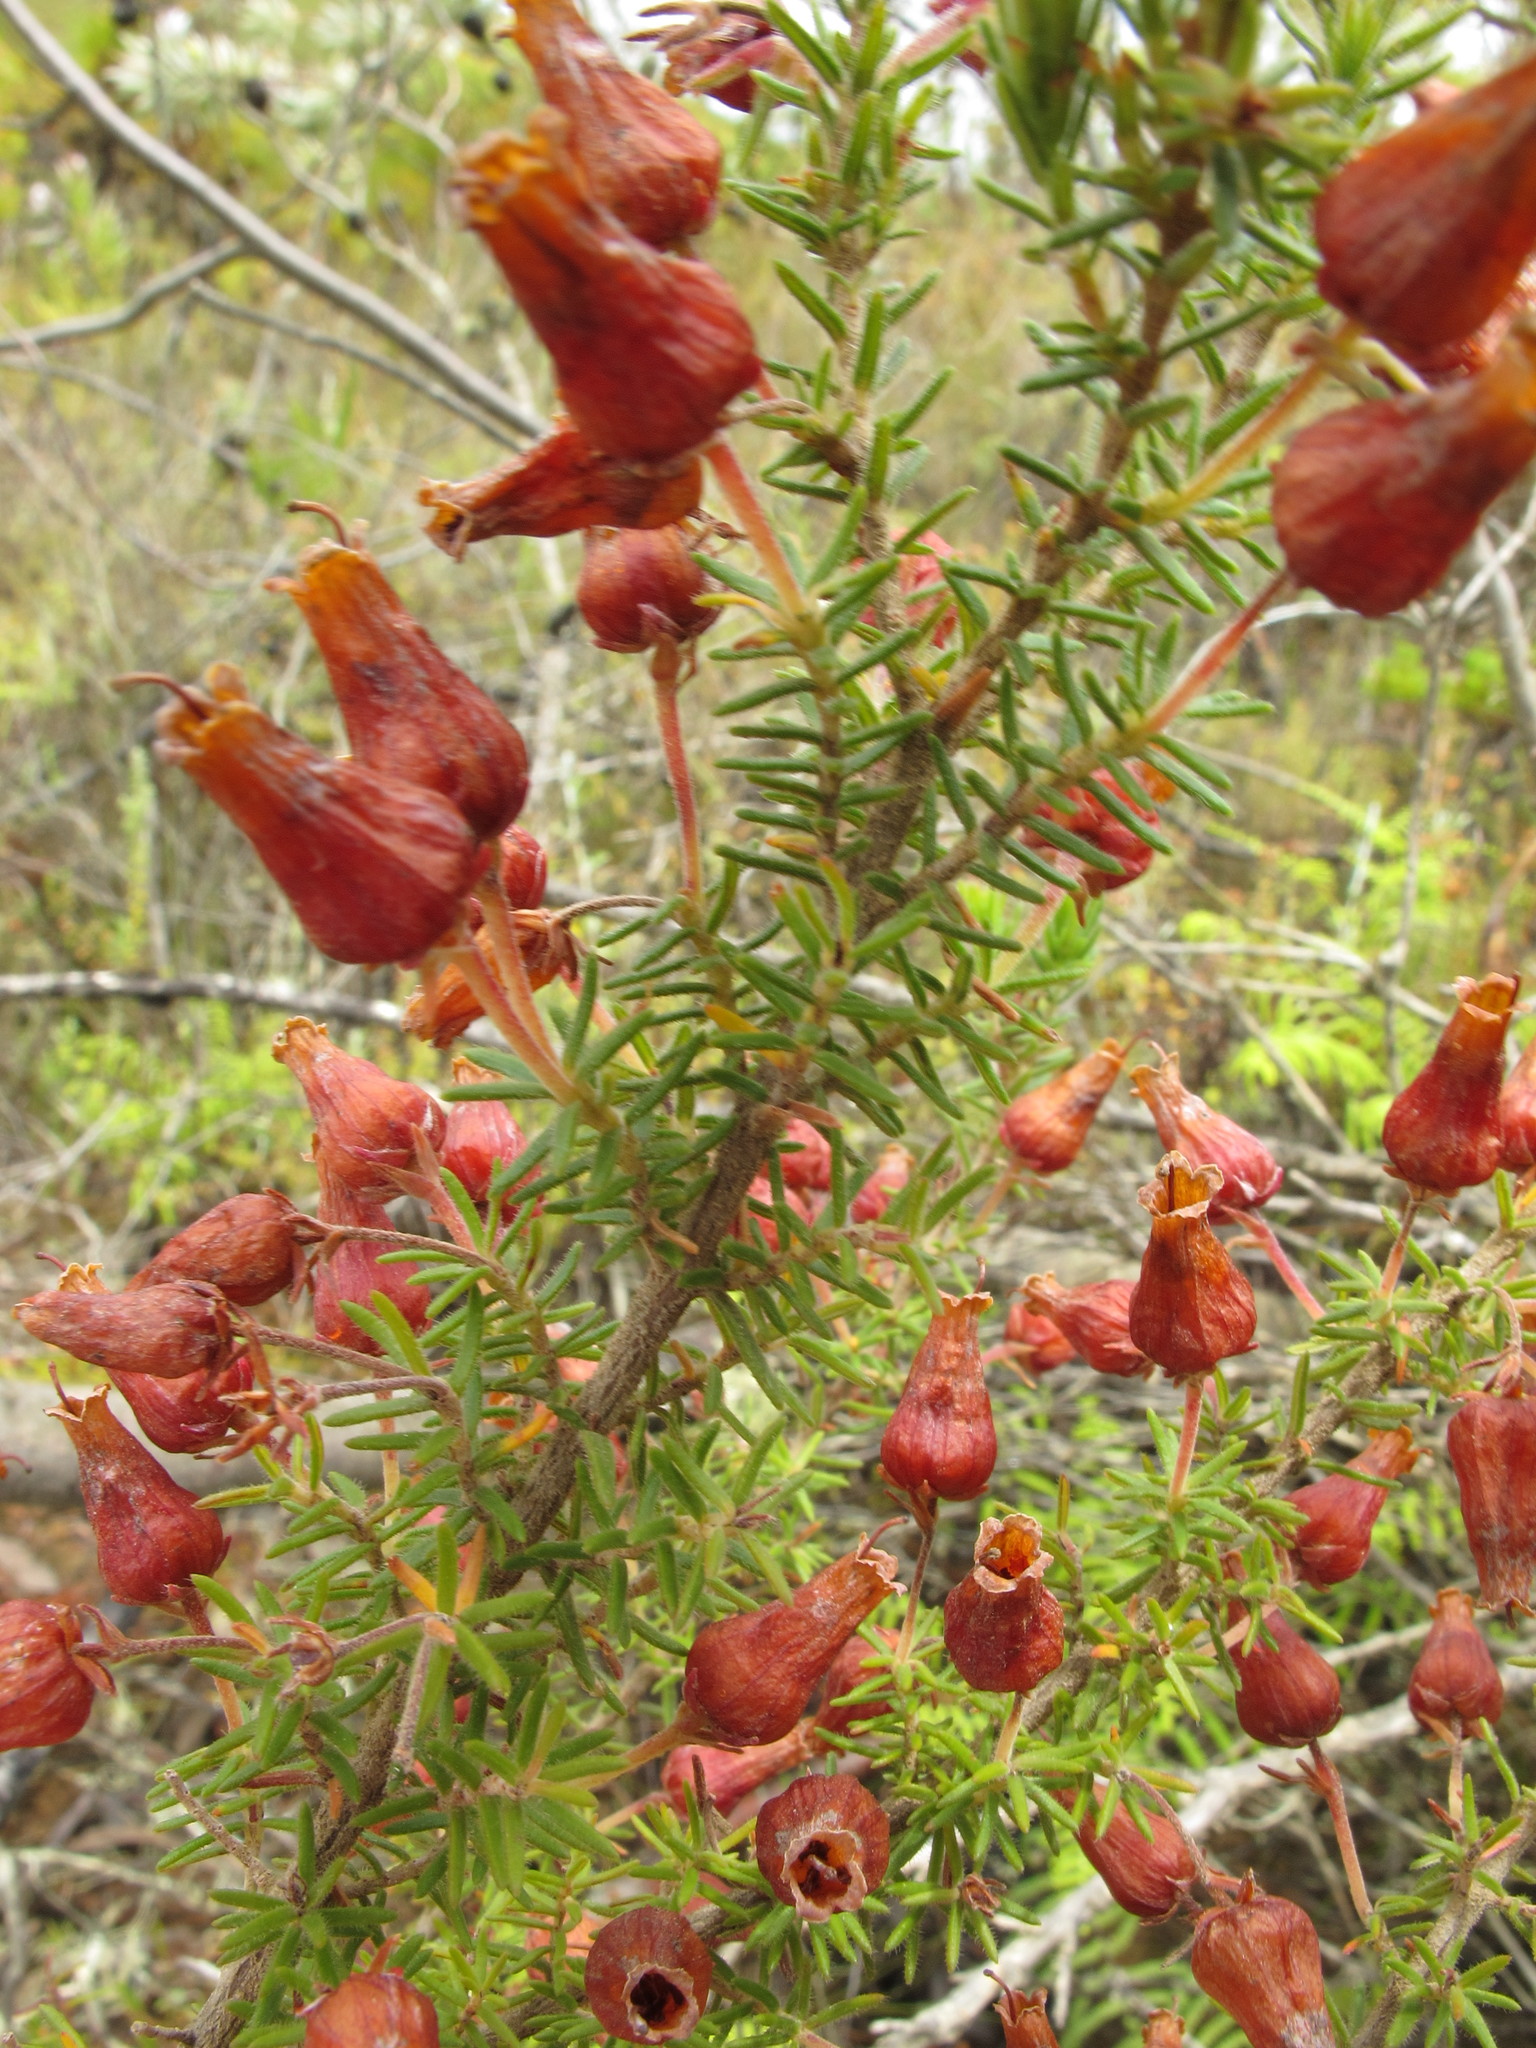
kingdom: Plantae
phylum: Tracheophyta
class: Magnoliopsida
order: Ericales
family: Ericaceae
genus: Erica
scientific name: Erica glomiflora
